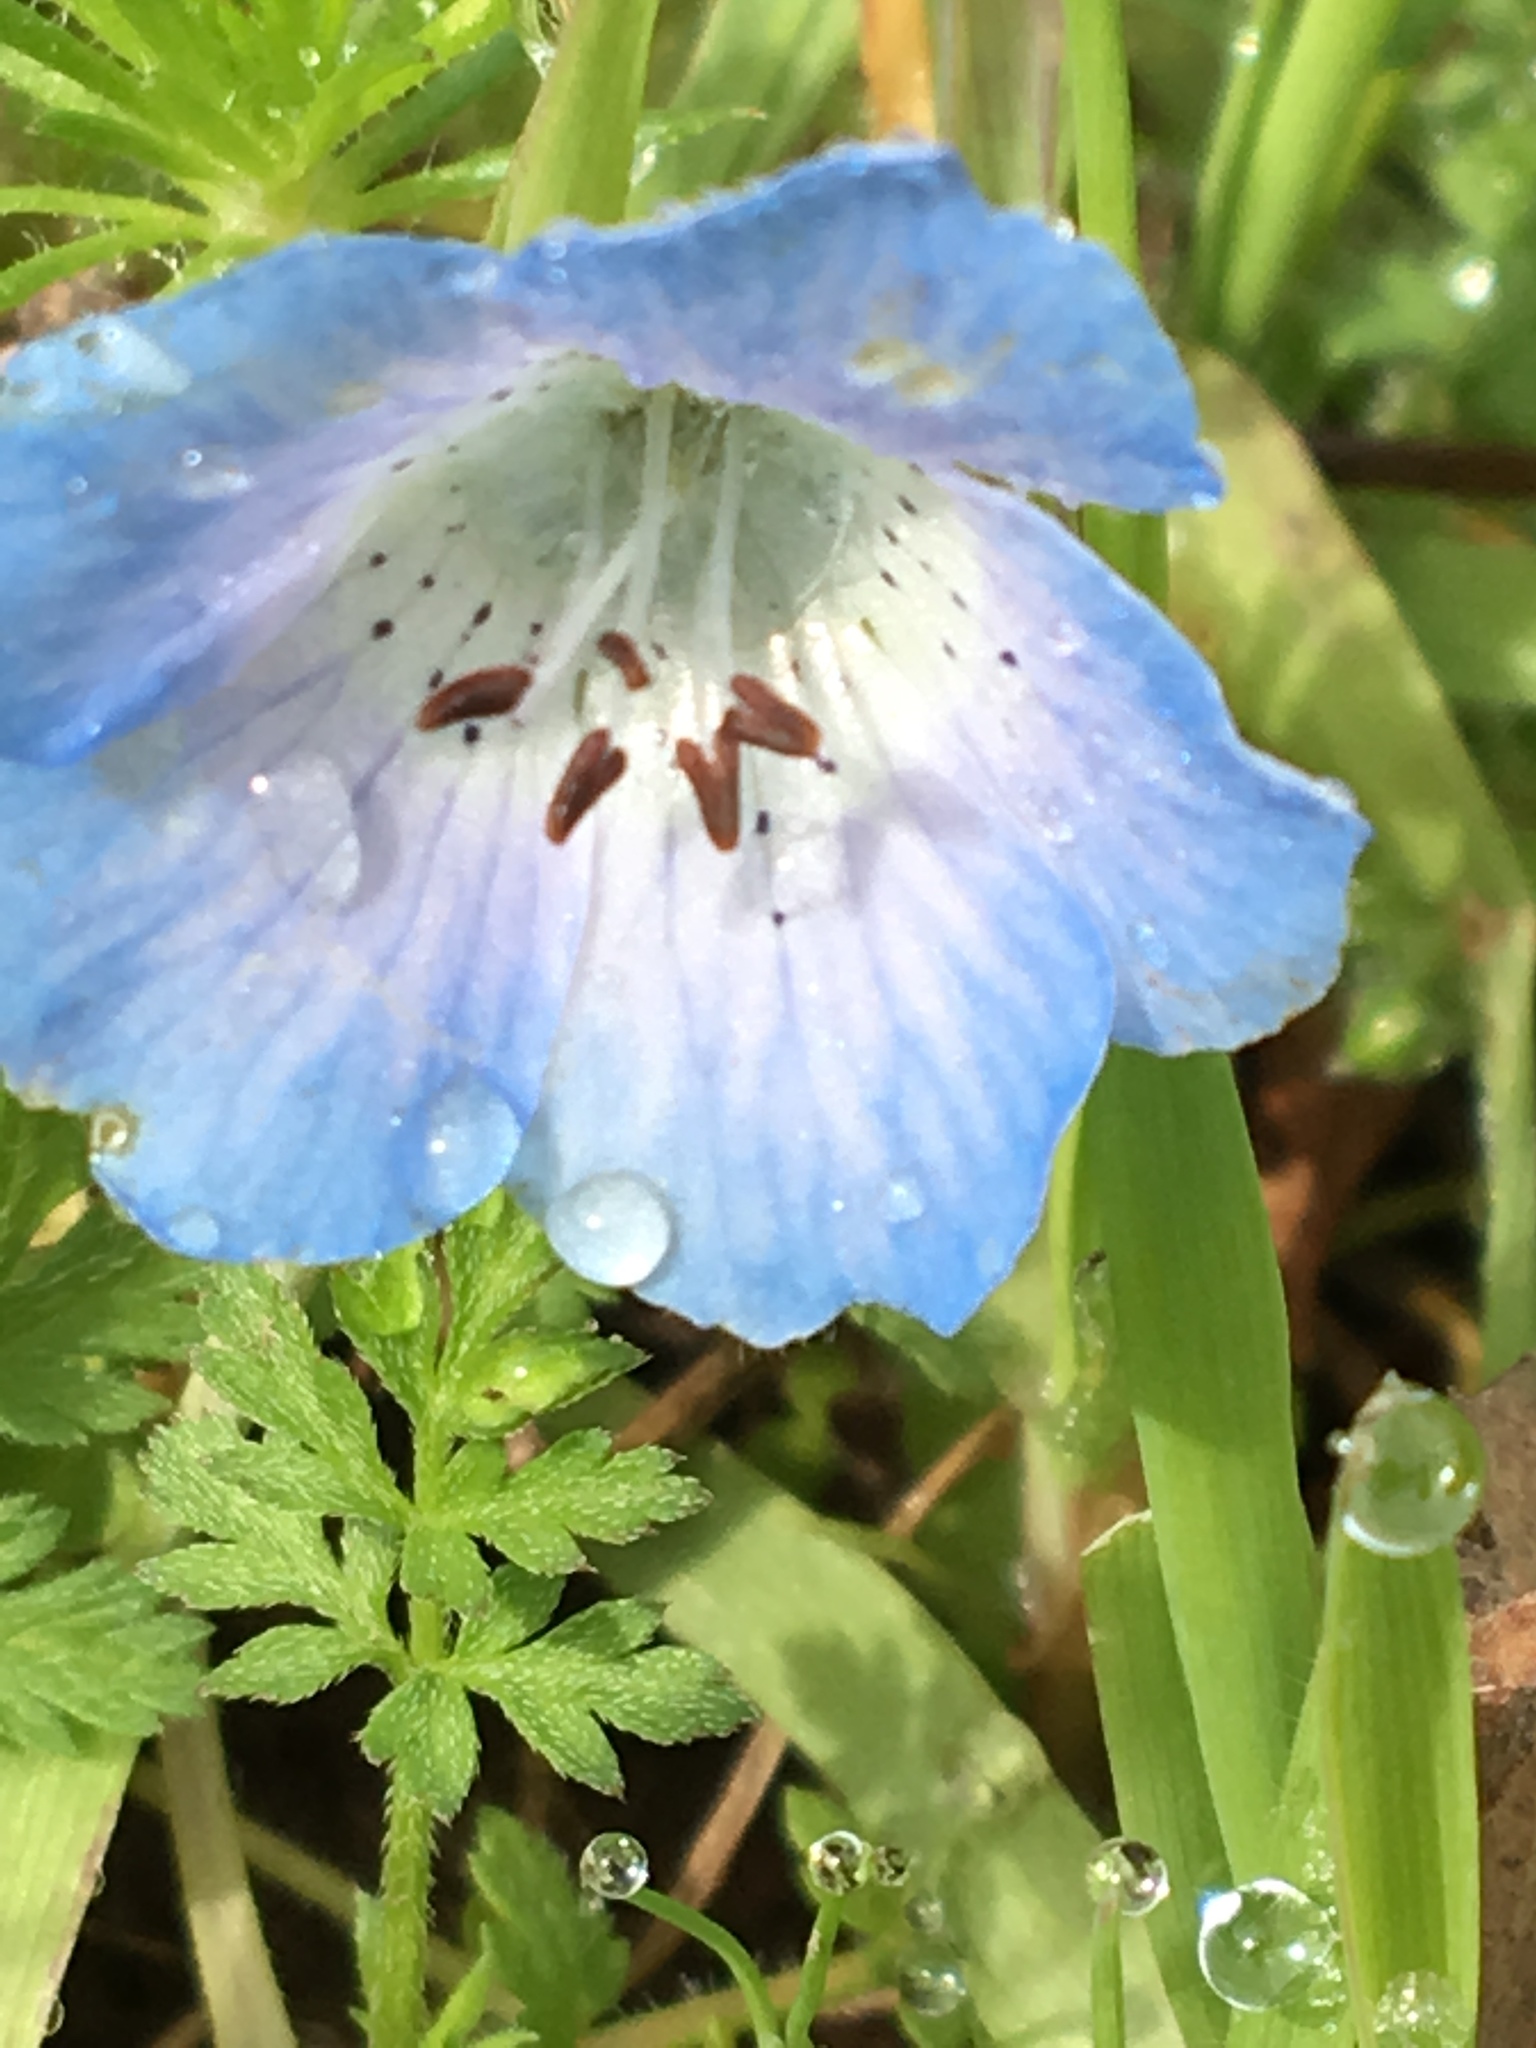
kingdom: Plantae
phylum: Tracheophyta
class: Magnoliopsida
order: Boraginales
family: Hydrophyllaceae
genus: Nemophila
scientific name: Nemophila menziesii
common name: Baby's-blue-eyes
